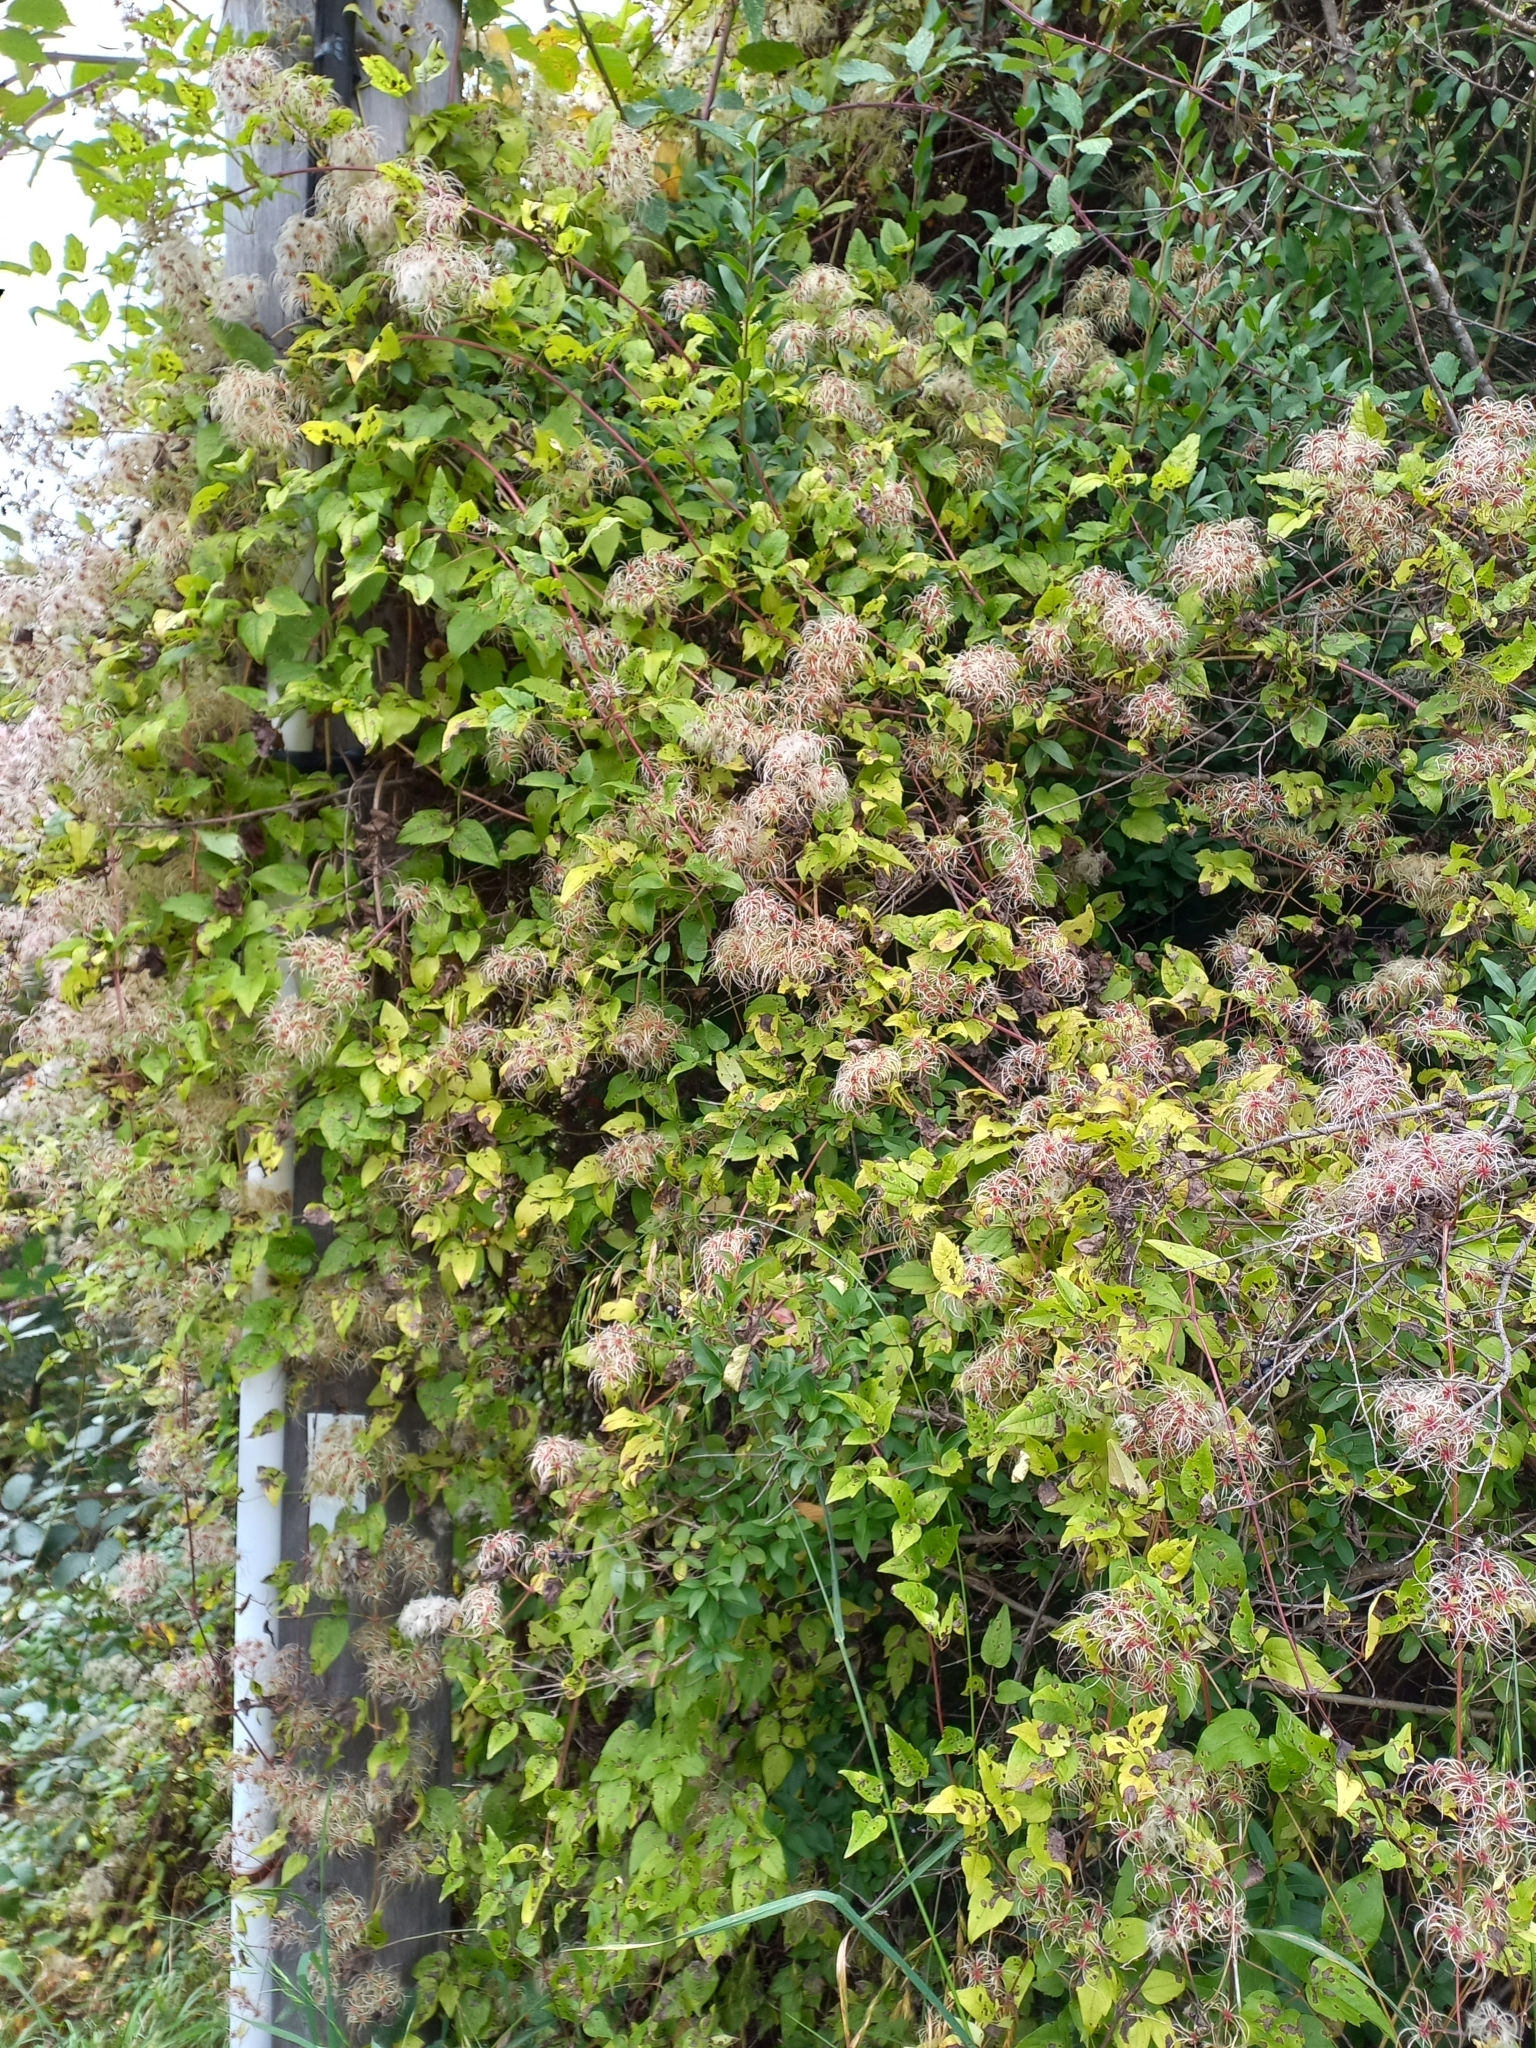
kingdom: Plantae
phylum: Tracheophyta
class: Magnoliopsida
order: Ranunculales
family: Ranunculaceae
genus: Clematis
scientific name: Clematis vitalba
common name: Evergreen clematis
